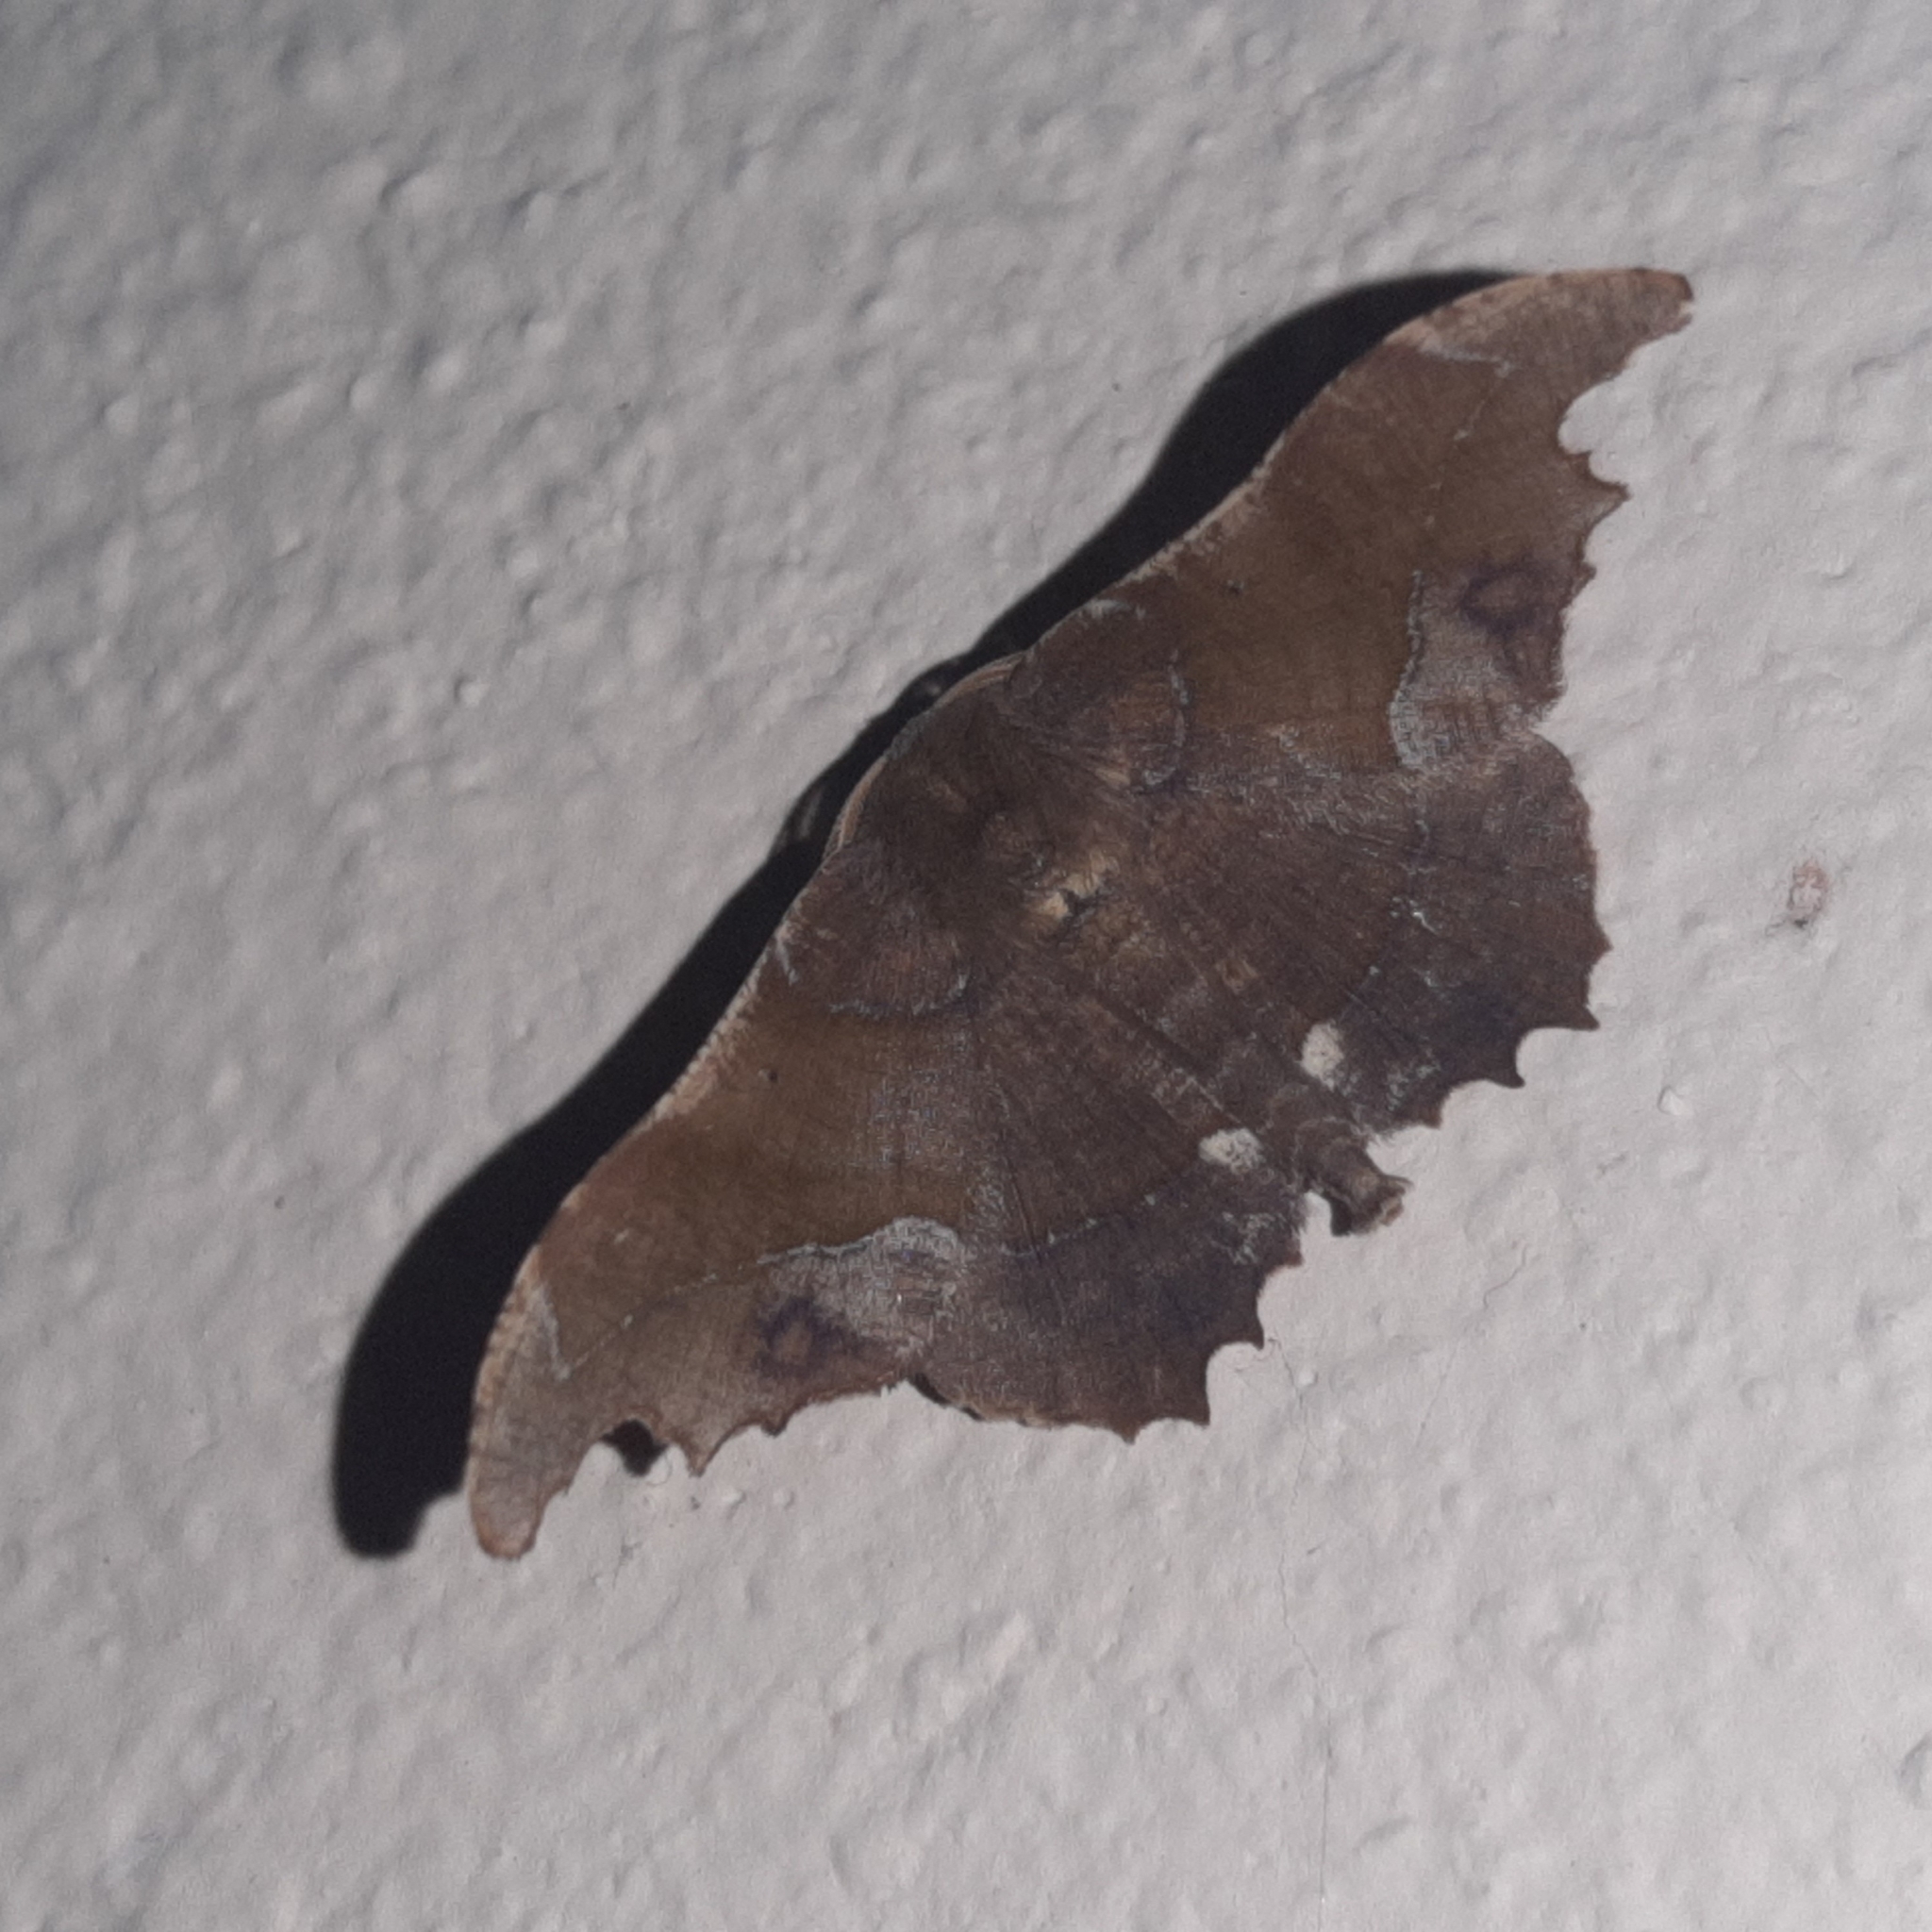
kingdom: Animalia
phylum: Arthropoda
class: Insecta
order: Lepidoptera
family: Geometridae
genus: Patalene
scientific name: Patalene aenetusaria
